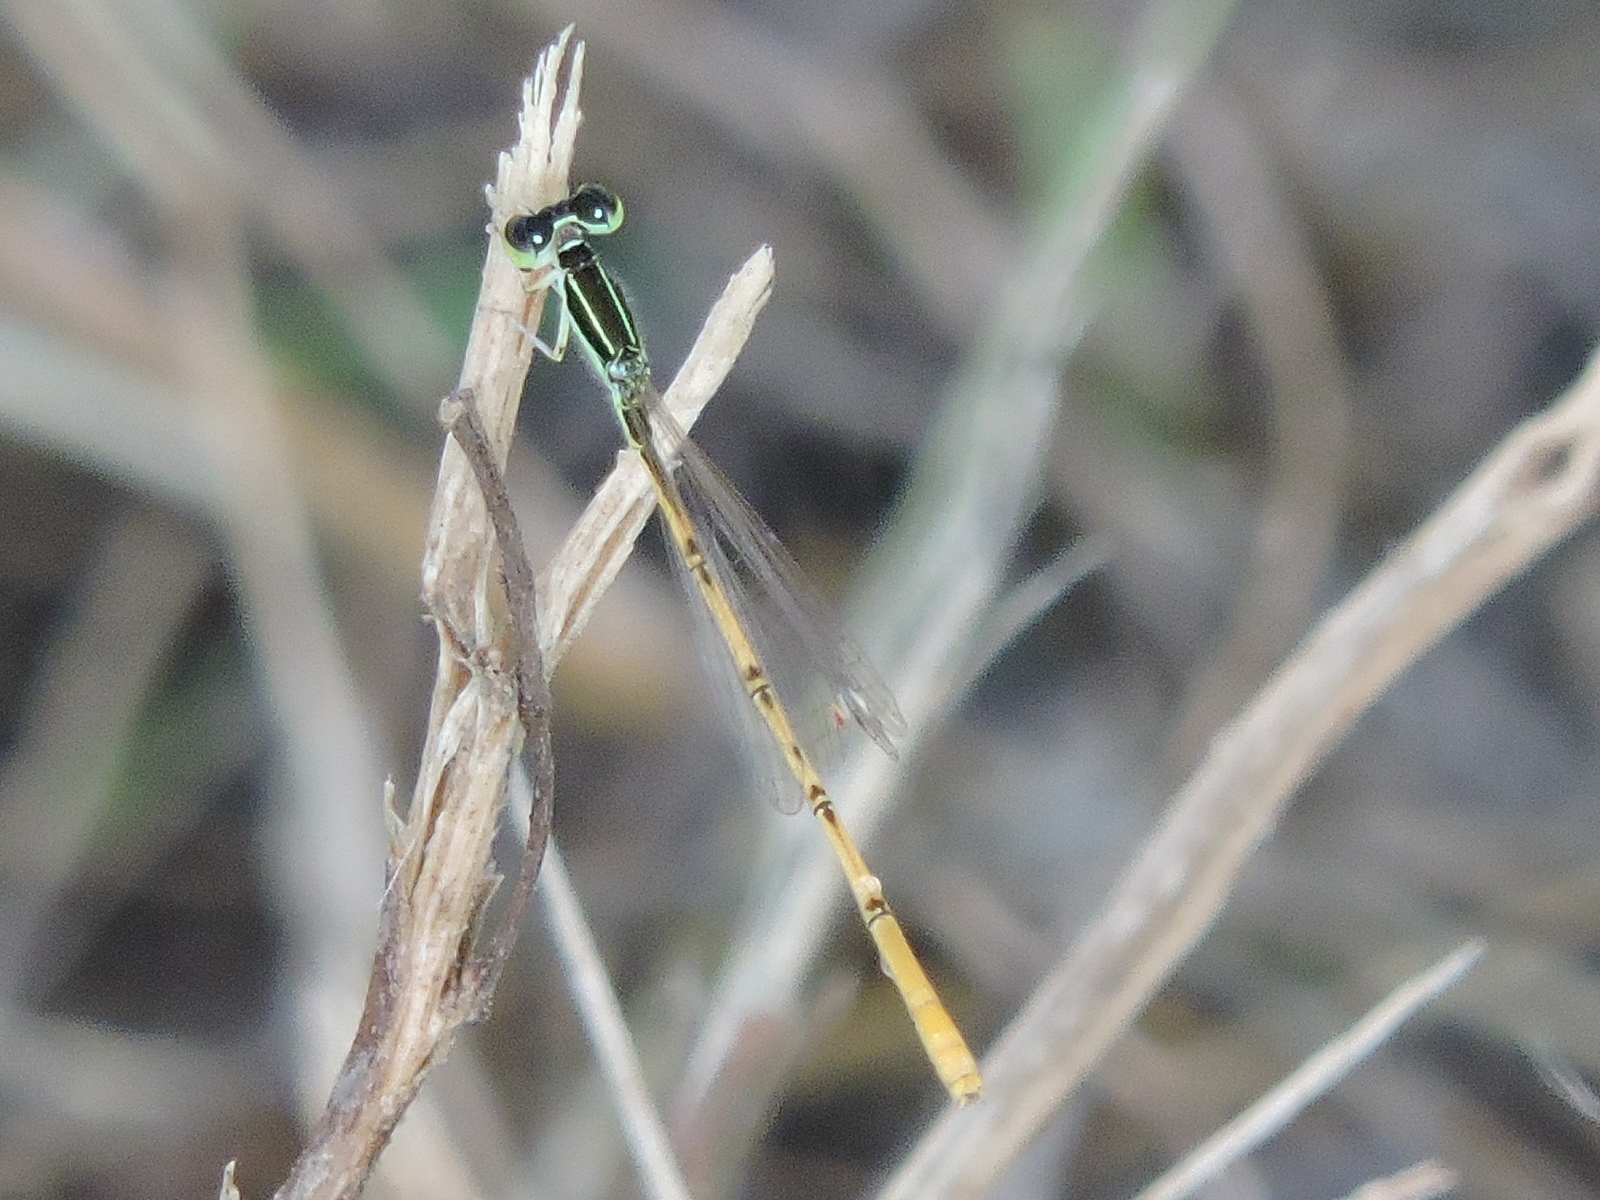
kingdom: Animalia
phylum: Arthropoda
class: Insecta
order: Odonata
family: Coenagrionidae
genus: Ischnura
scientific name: Ischnura hastata
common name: Citrine forktail
